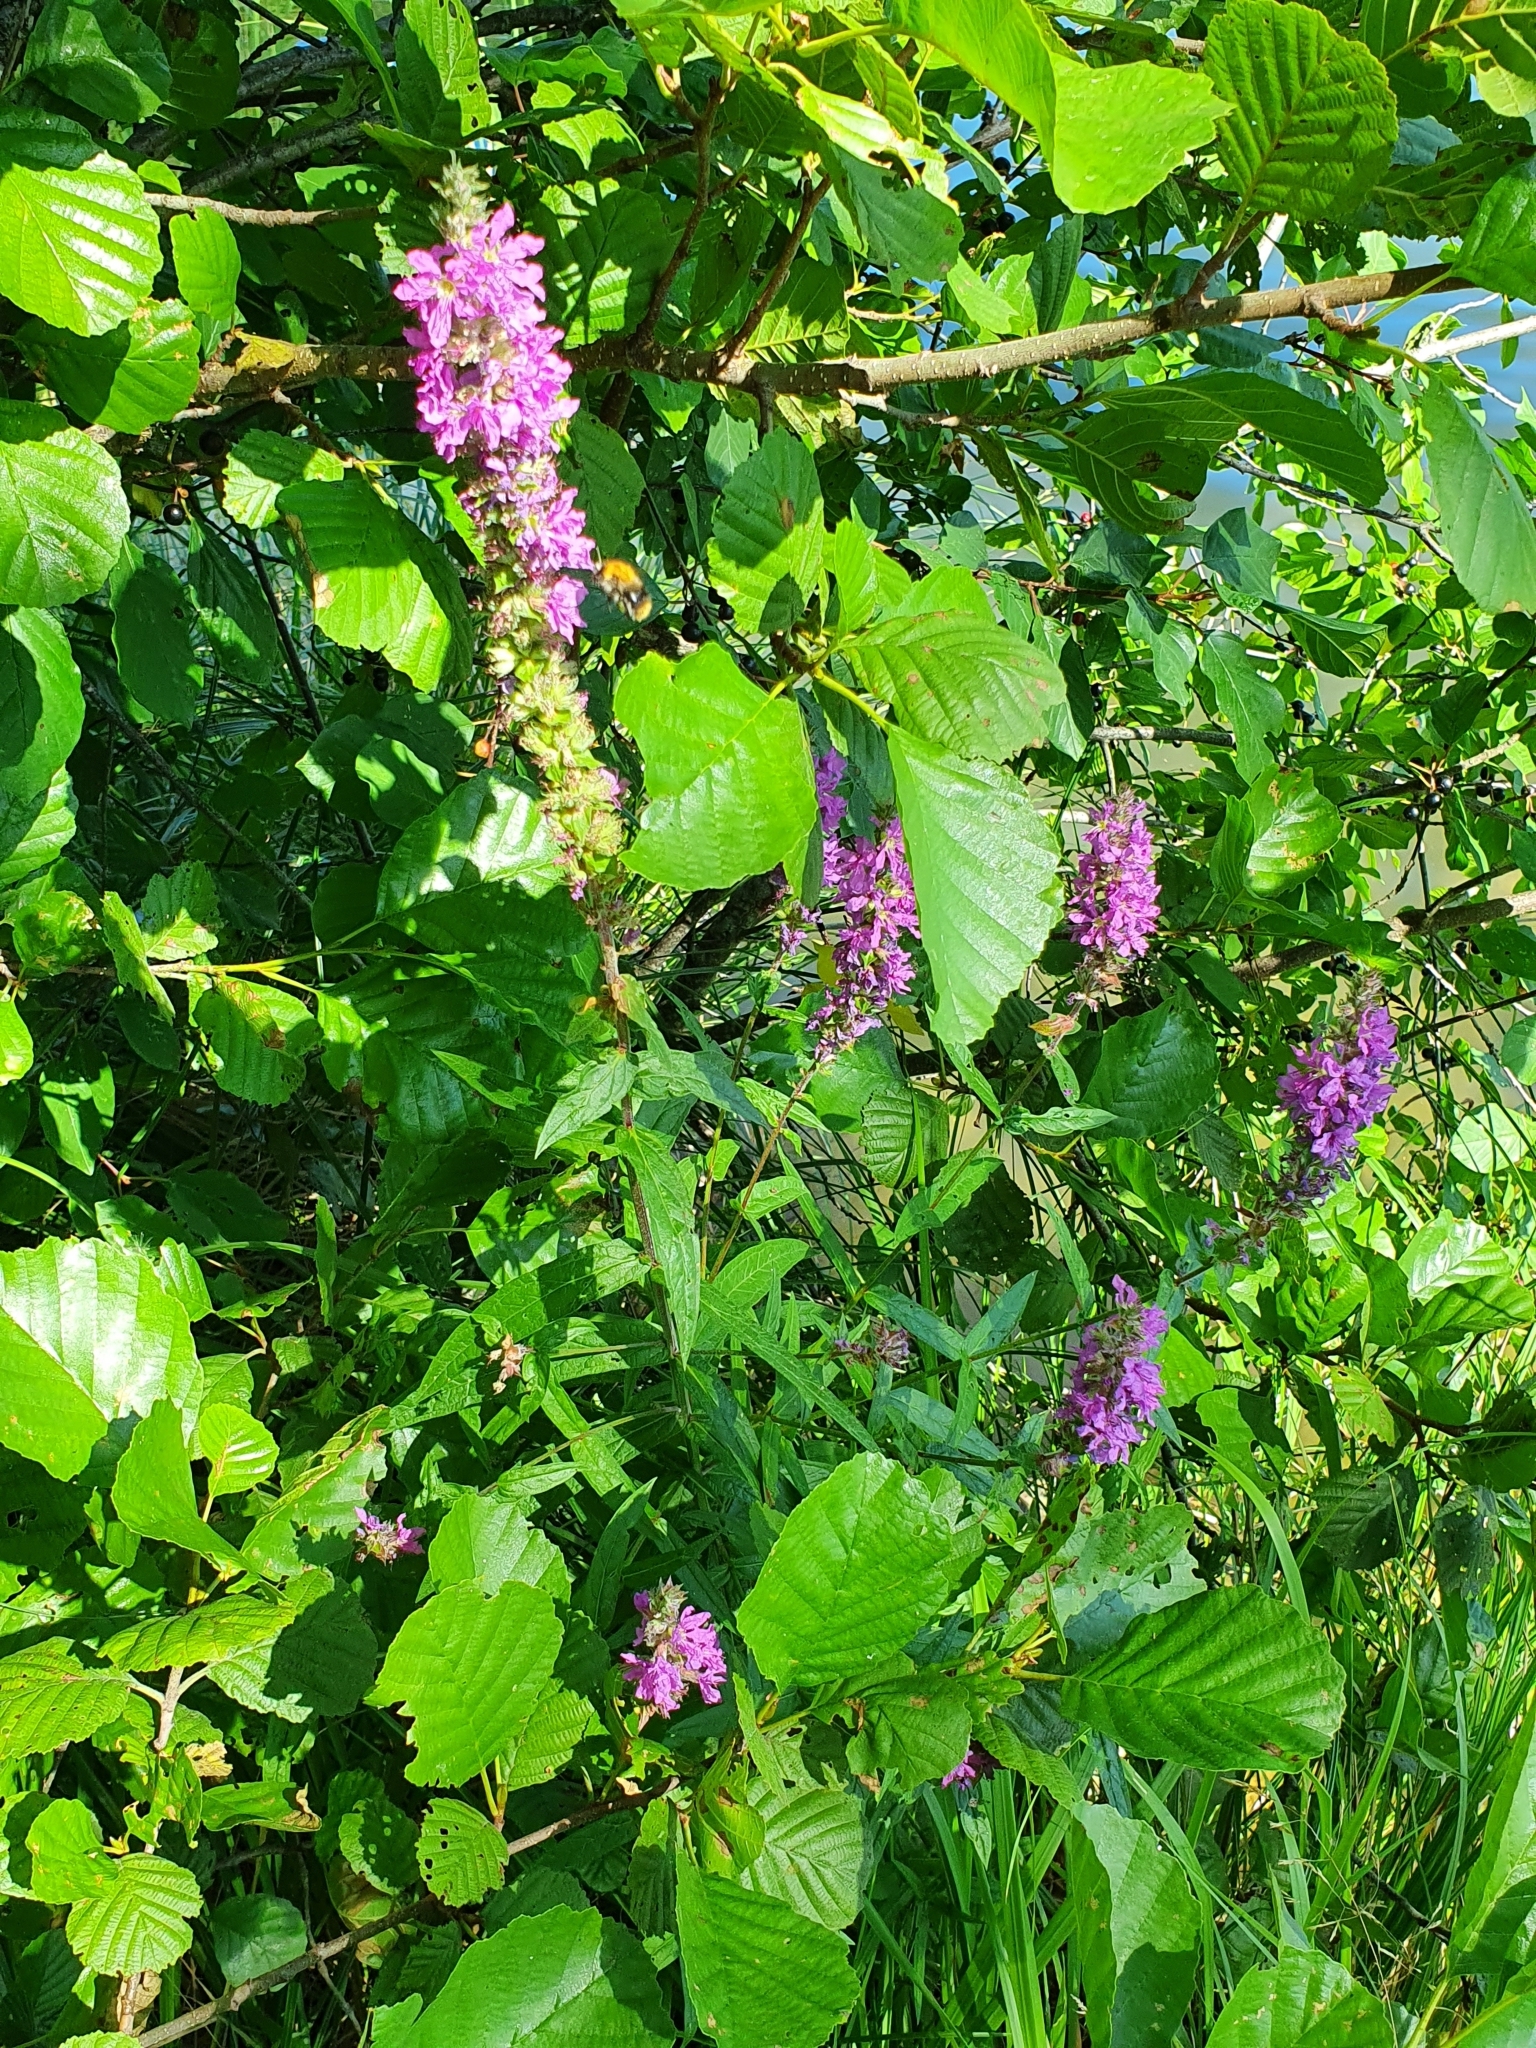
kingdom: Plantae
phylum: Tracheophyta
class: Magnoliopsida
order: Myrtales
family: Lythraceae
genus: Lythrum
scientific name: Lythrum salicaria
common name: Purple loosestrife
